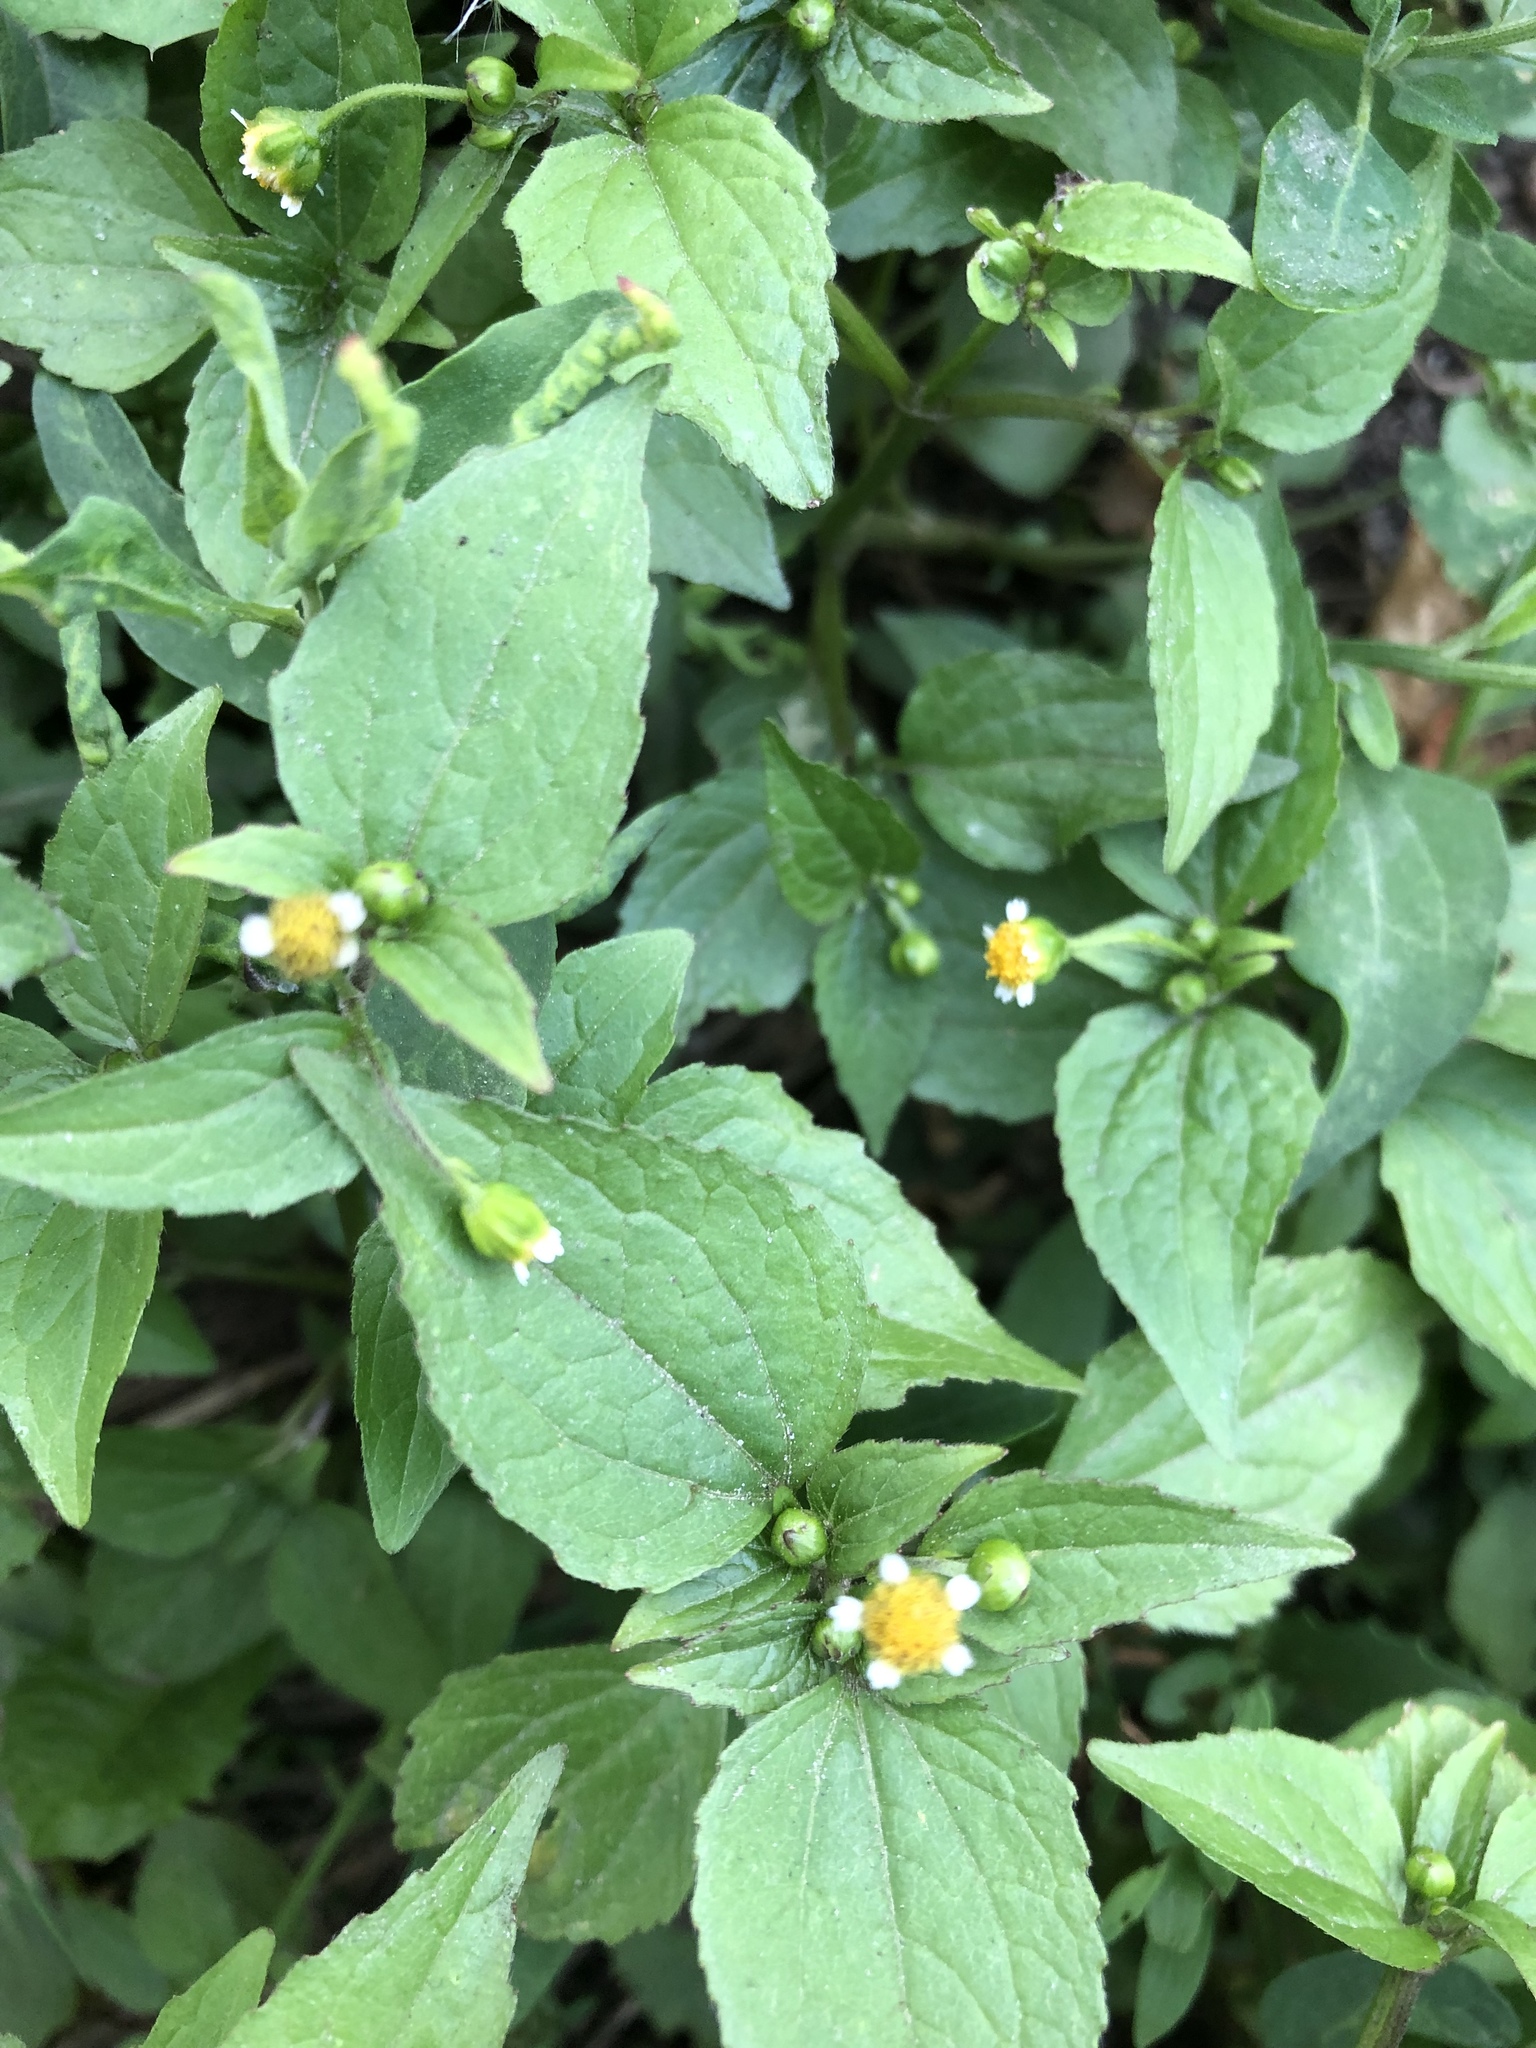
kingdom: Plantae
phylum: Tracheophyta
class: Magnoliopsida
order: Asterales
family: Asteraceae
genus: Galinsoga
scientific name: Galinsoga parviflora
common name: Gallant soldier
